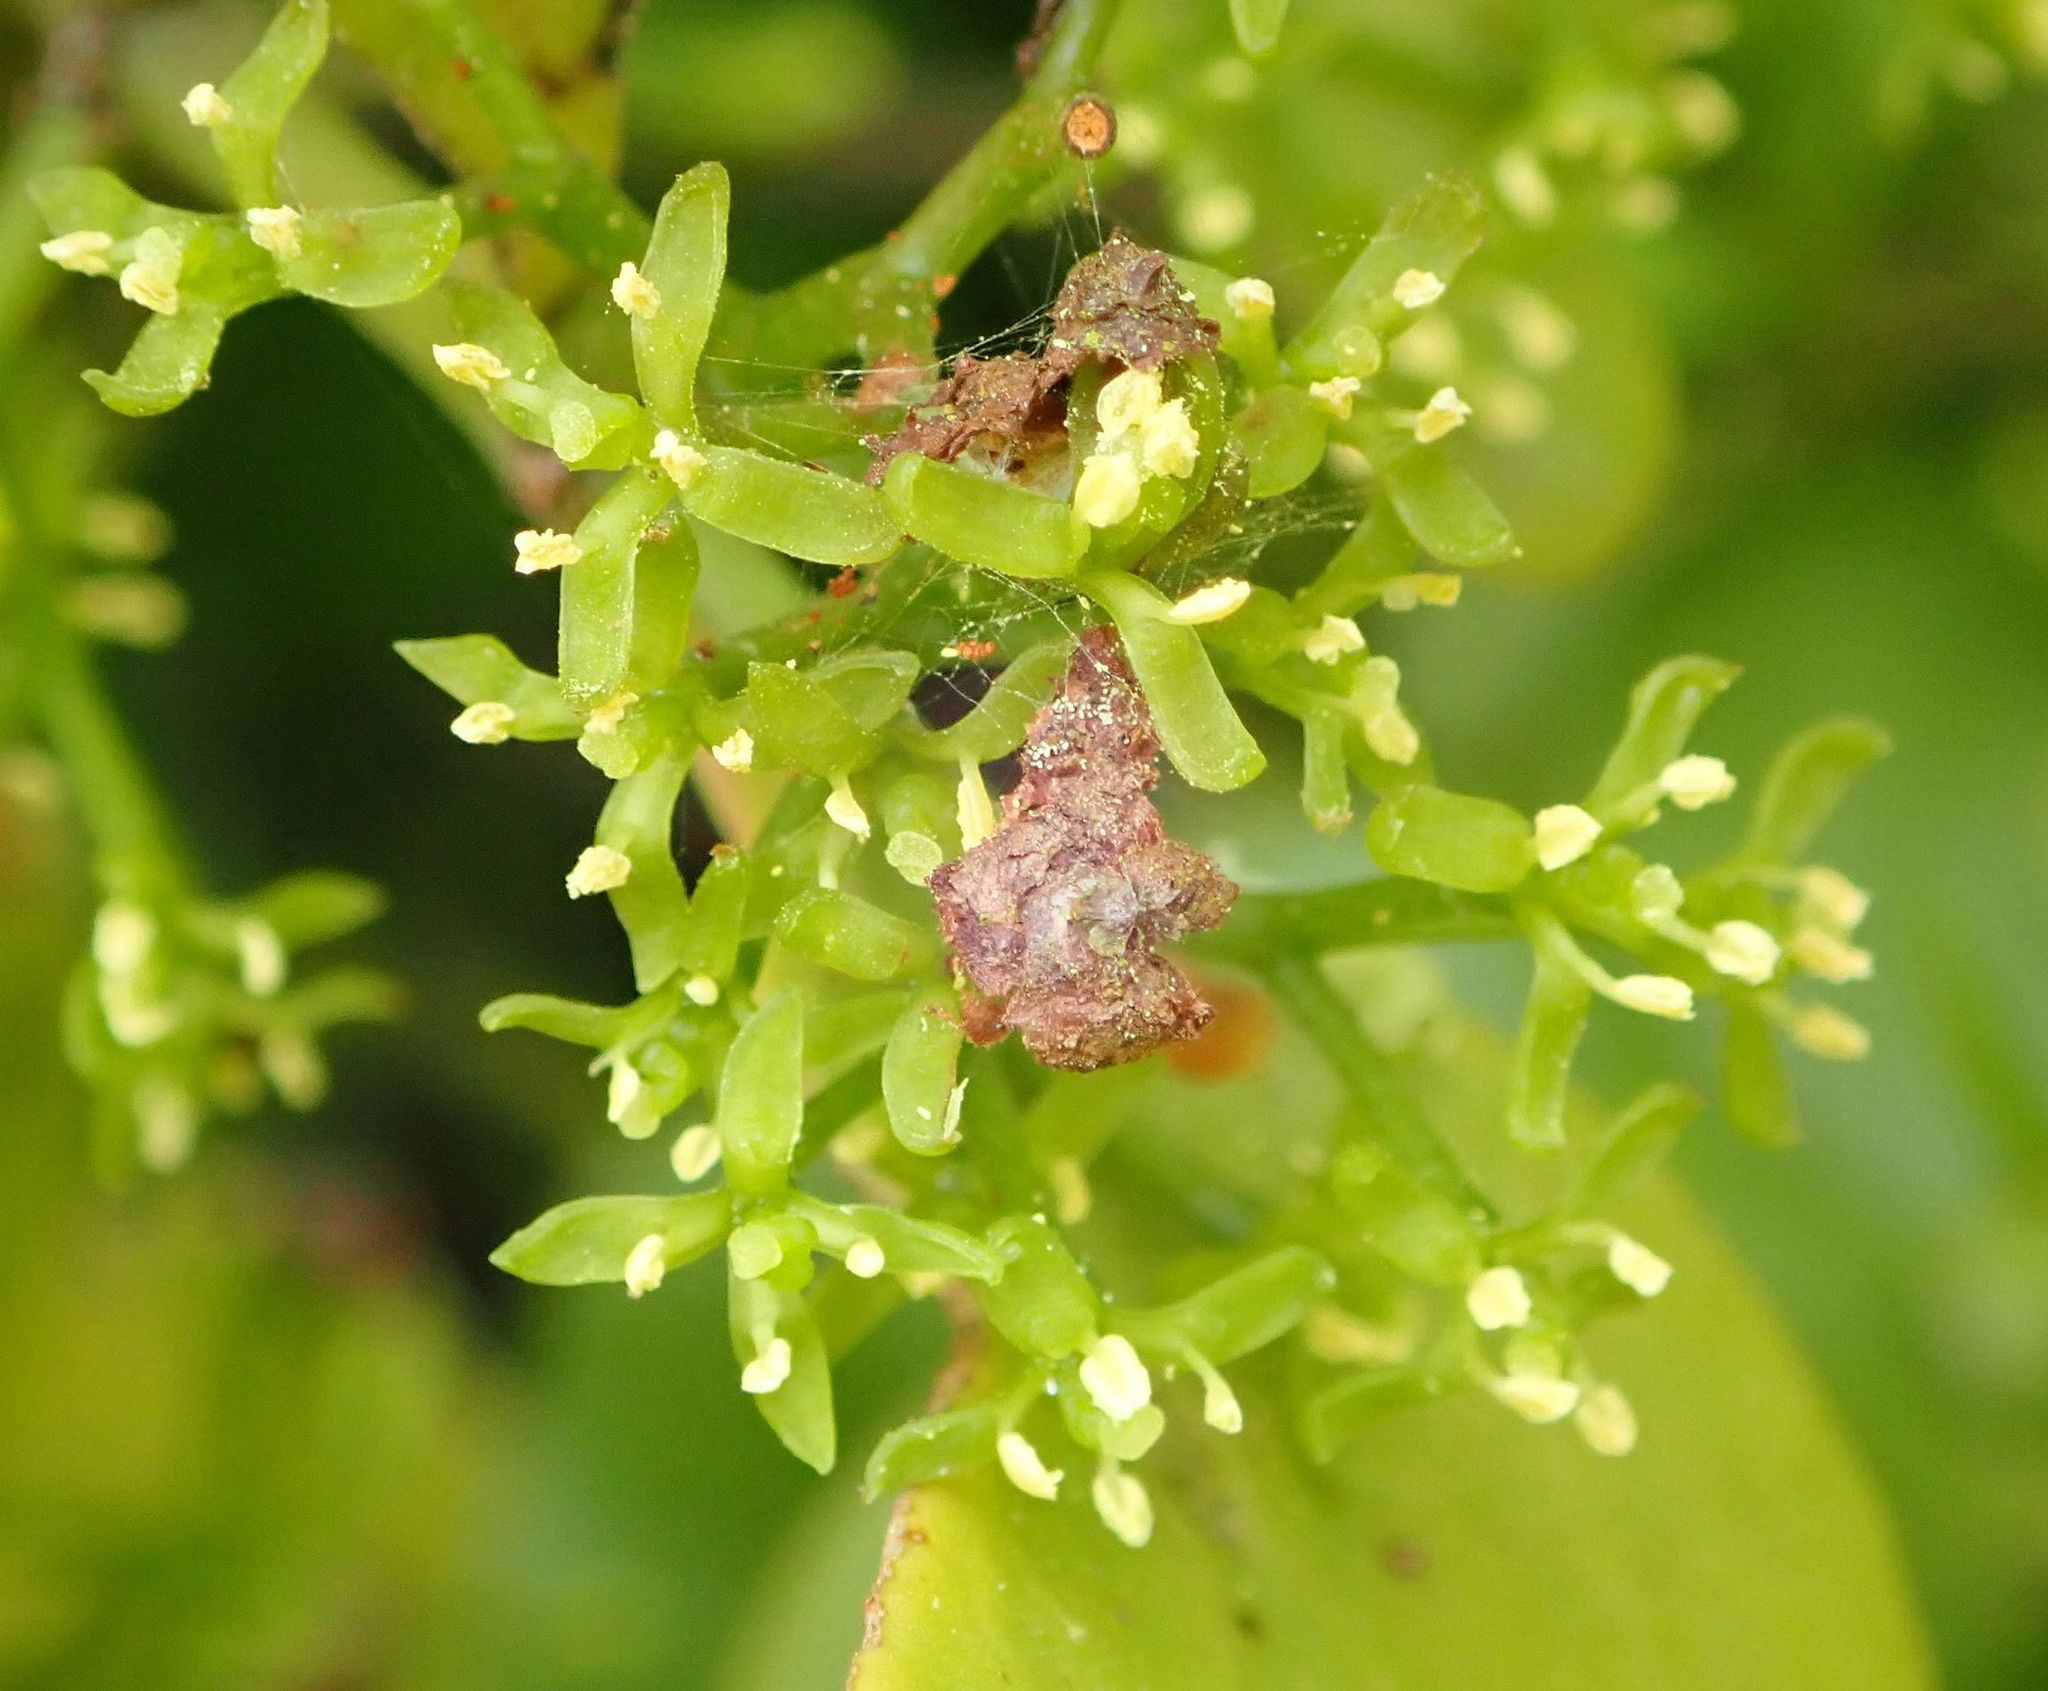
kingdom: Plantae
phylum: Tracheophyta
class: Magnoliopsida
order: Santalales
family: Loranthaceae
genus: Ileostylus
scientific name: Ileostylus micranthus
